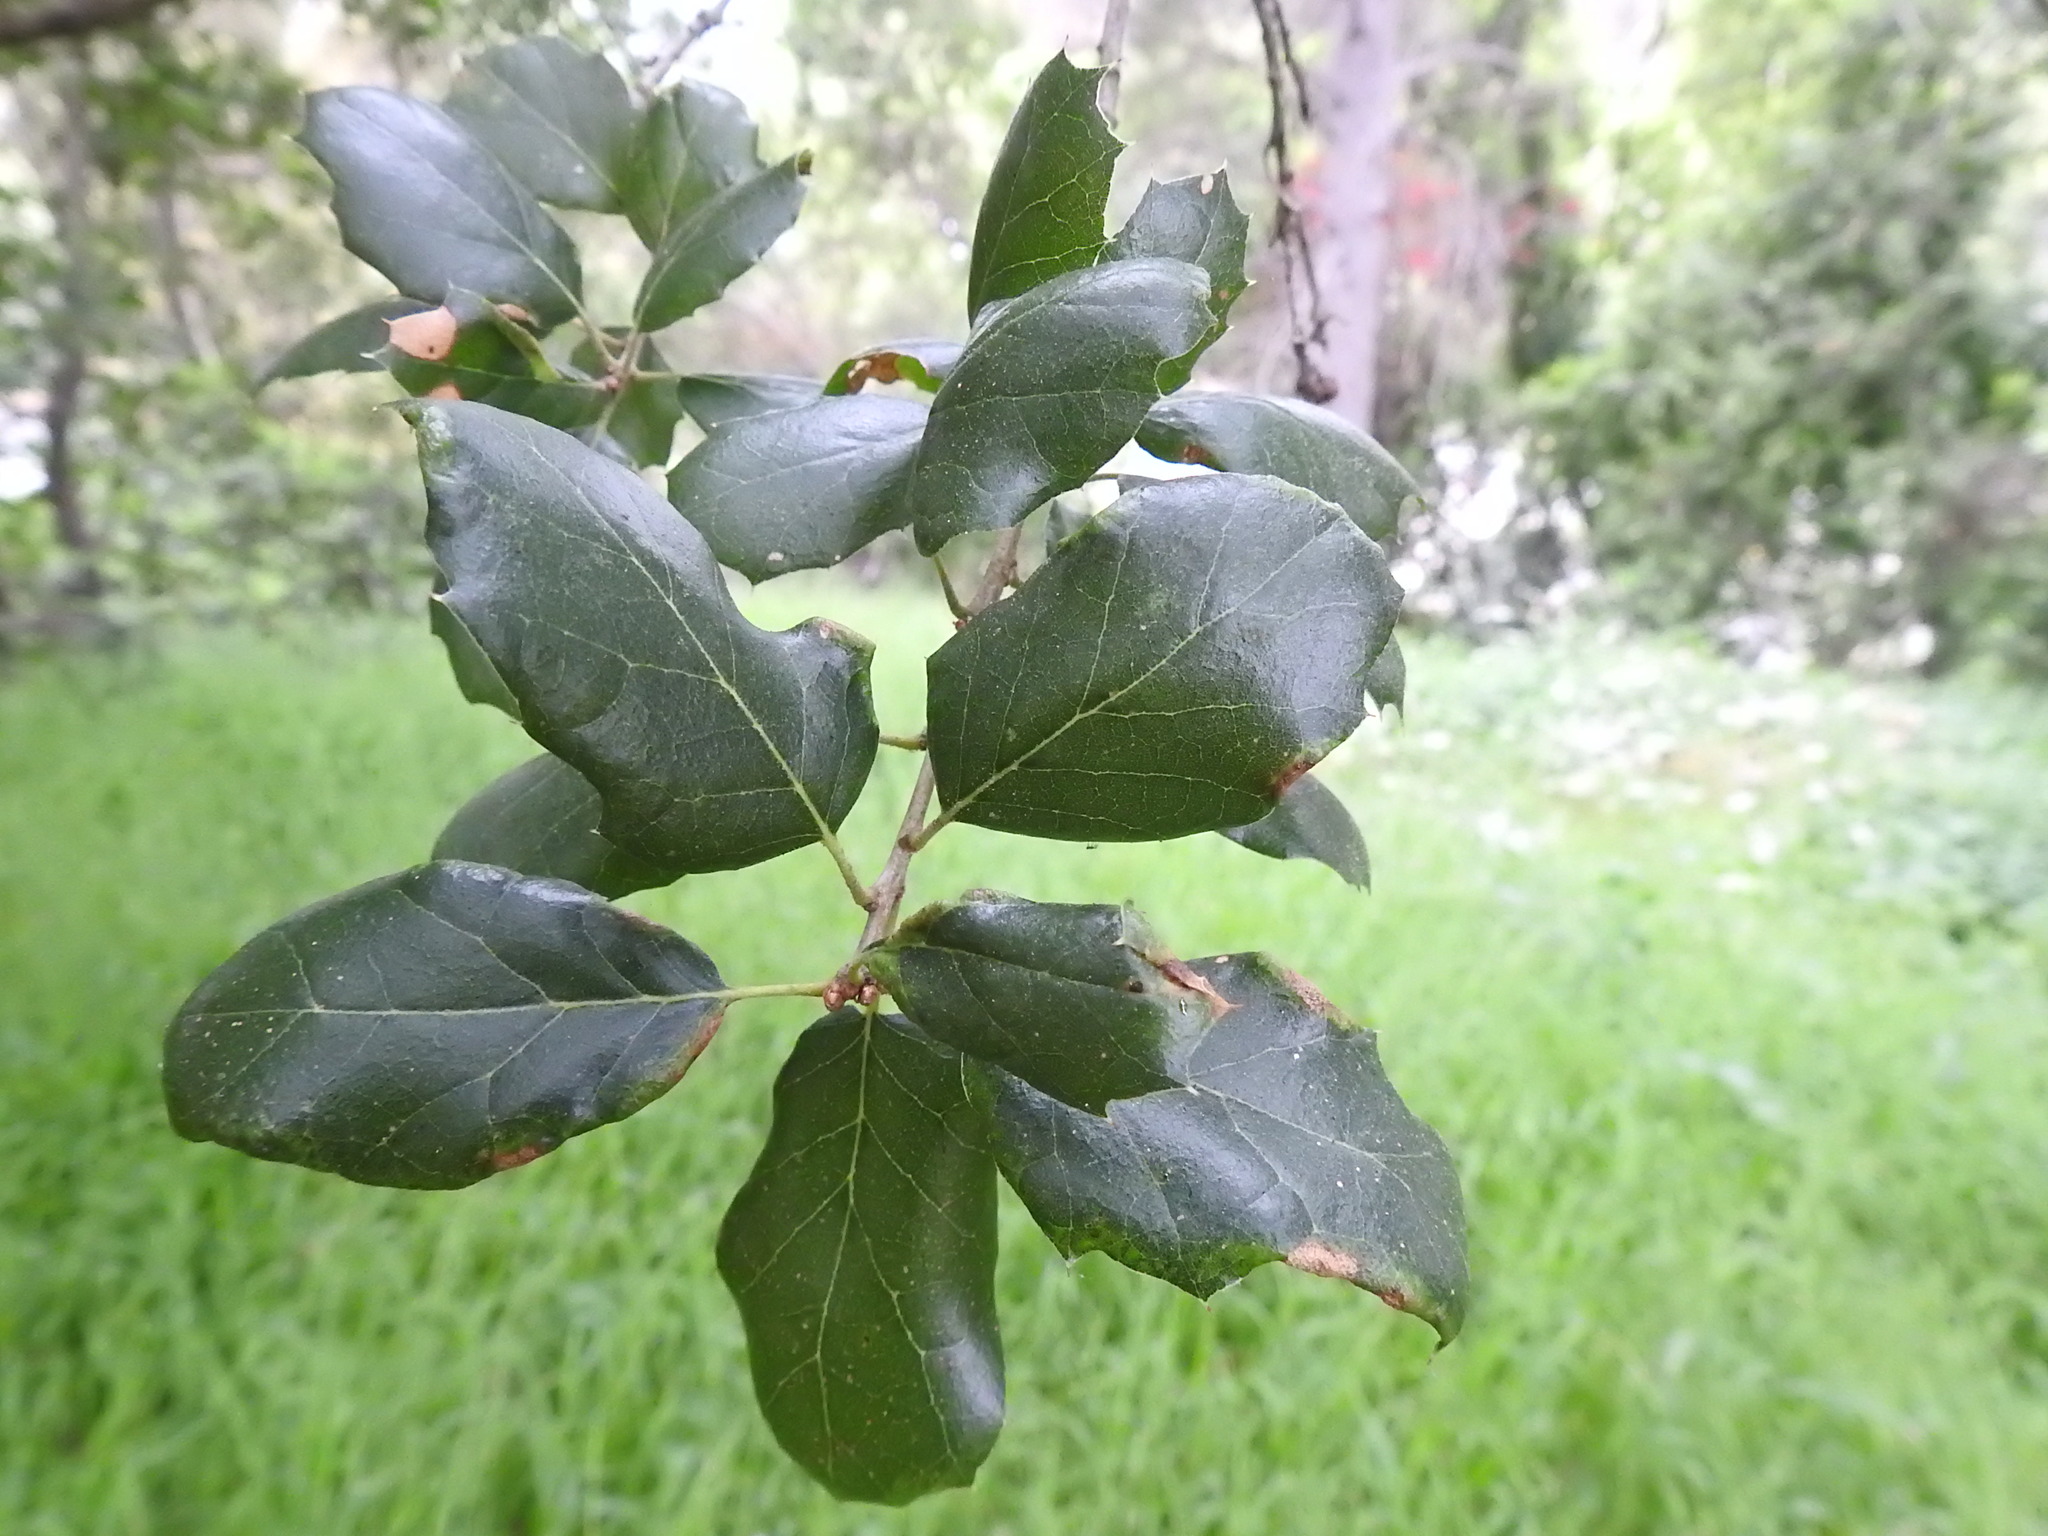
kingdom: Plantae
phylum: Tracheophyta
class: Magnoliopsida
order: Fagales
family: Fagaceae
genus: Quercus
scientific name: Quercus agrifolia
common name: California live oak
